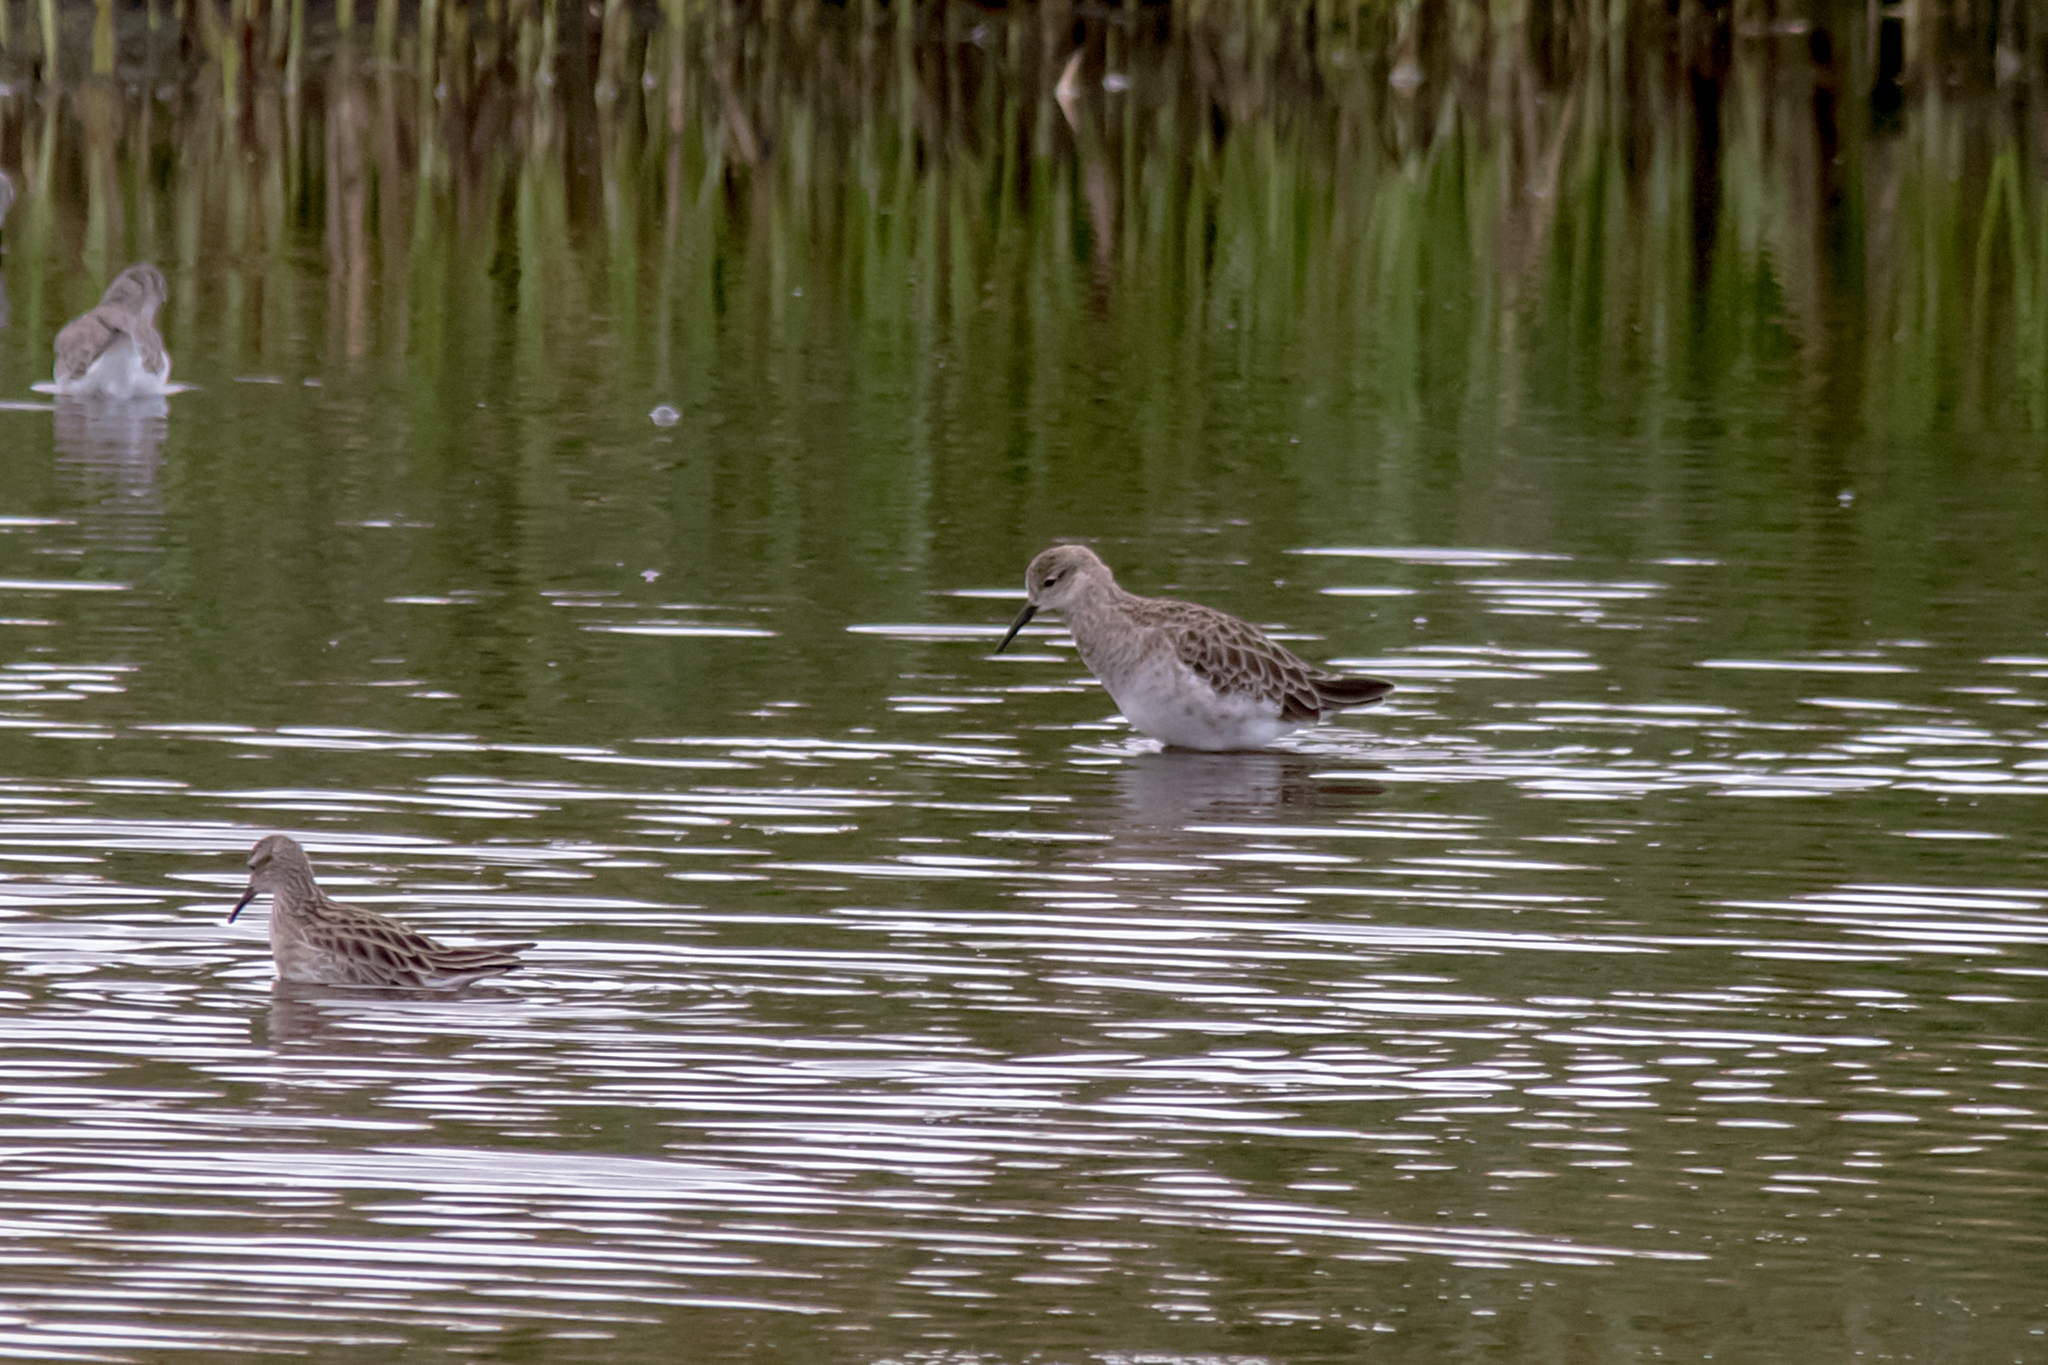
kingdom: Animalia
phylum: Chordata
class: Aves
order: Charadriiformes
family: Scolopacidae
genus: Calidris
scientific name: Calidris pugnax
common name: Ruff
